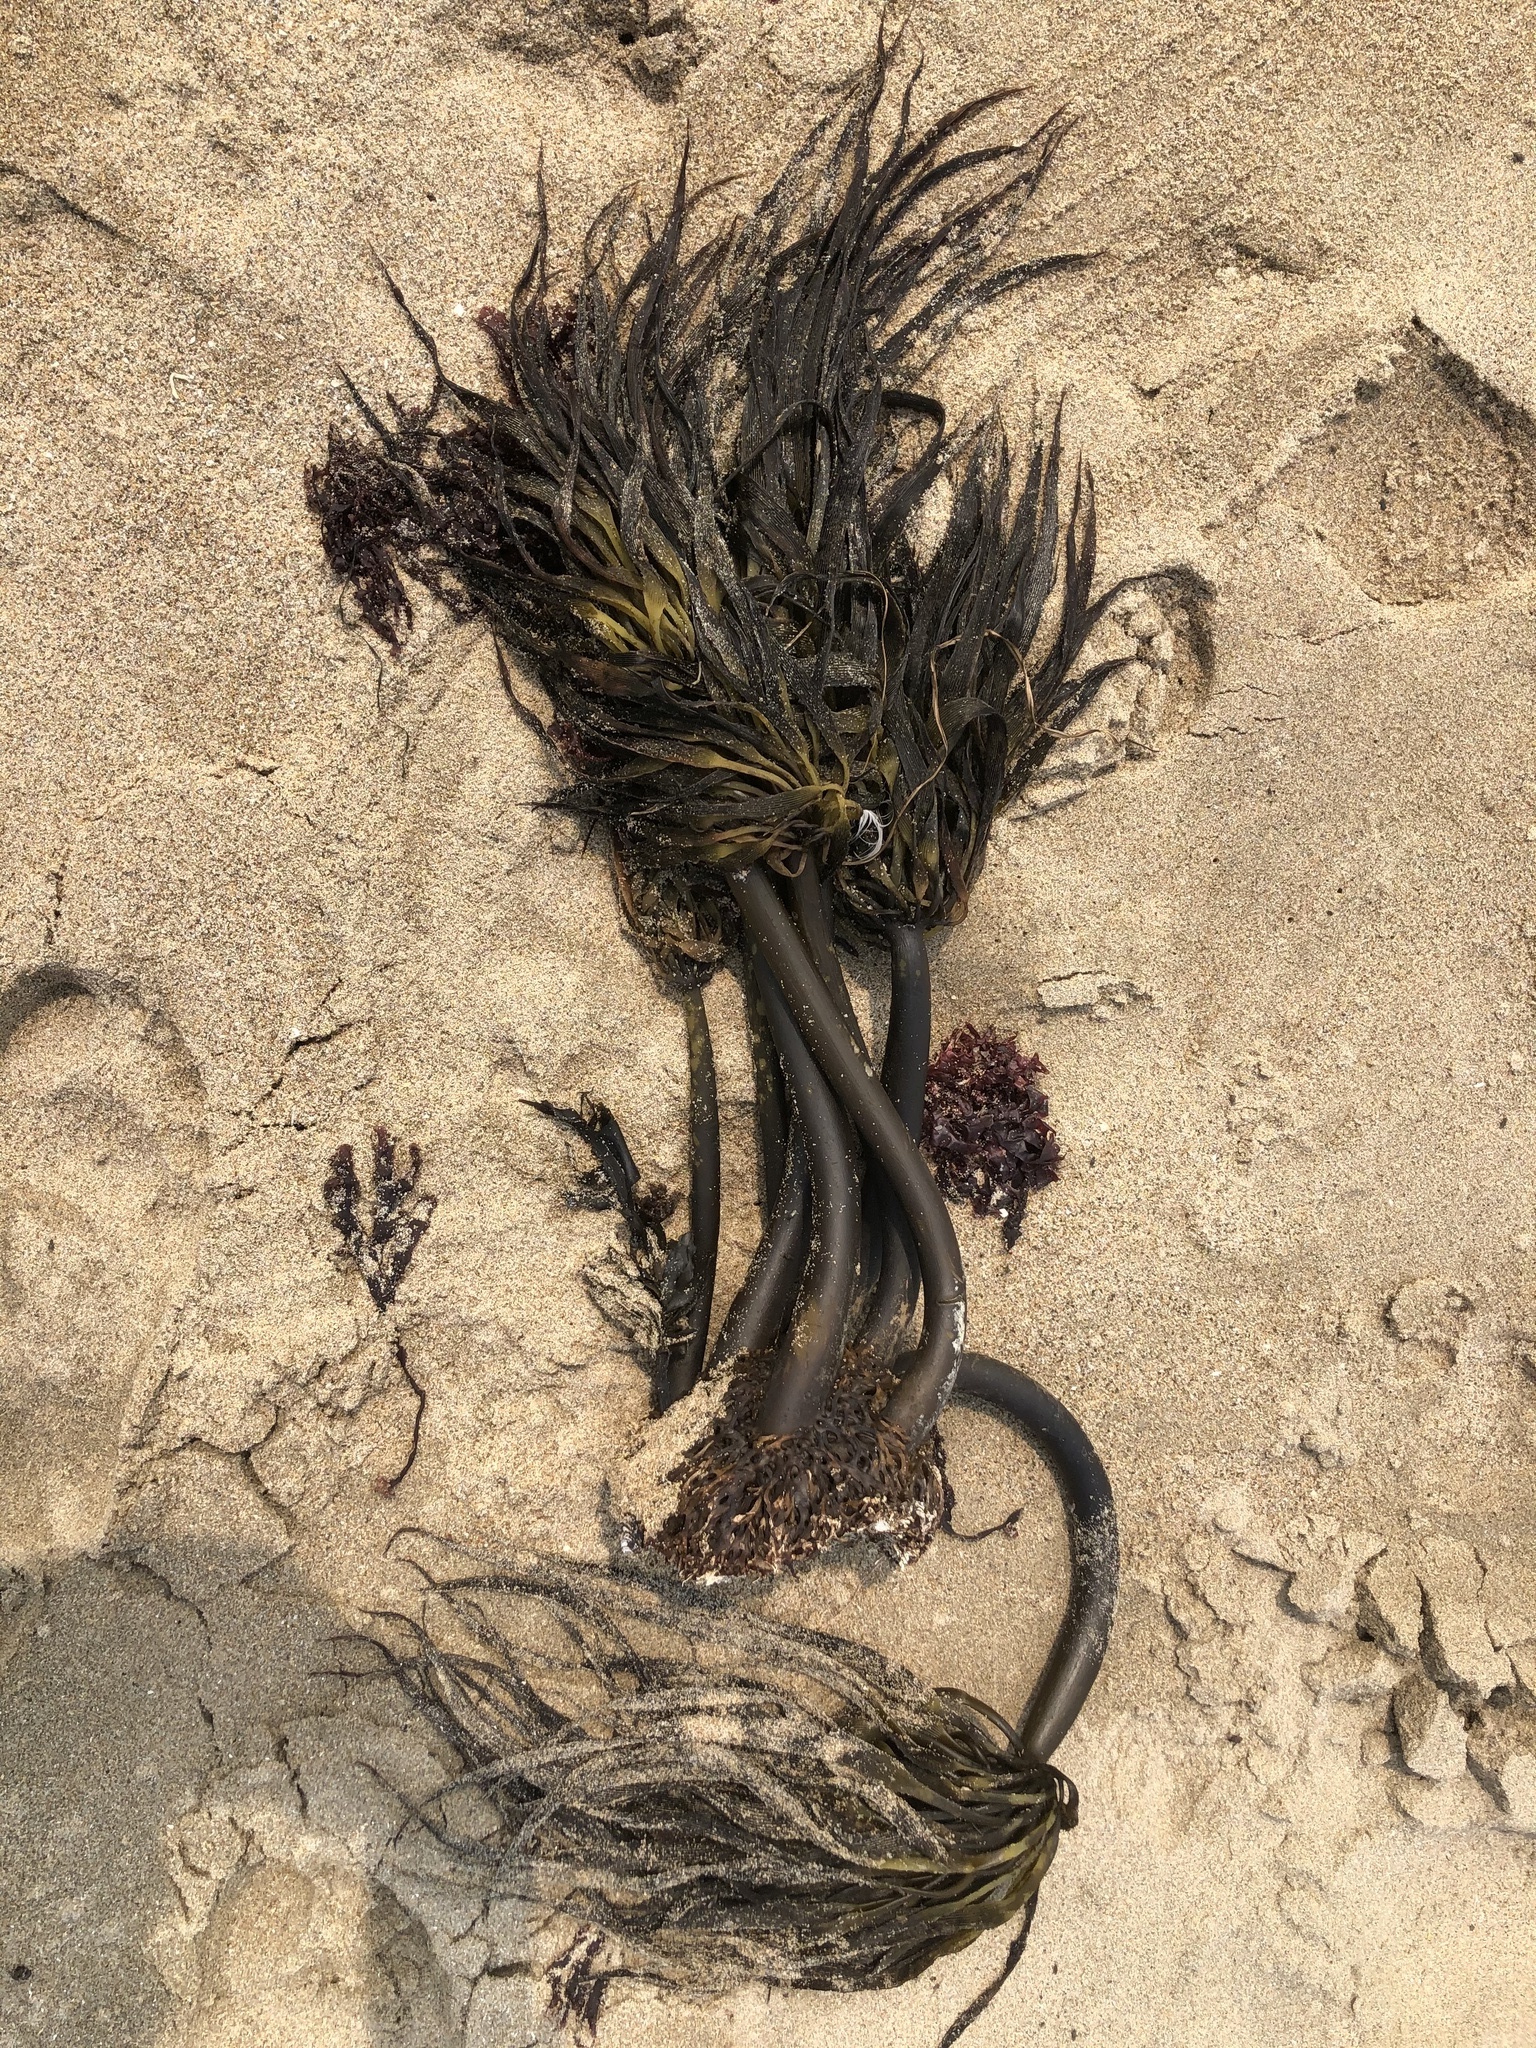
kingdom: Chromista
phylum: Ochrophyta
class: Phaeophyceae
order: Laminariales
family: Laminariaceae
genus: Postelsia
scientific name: Postelsia palmiformis
